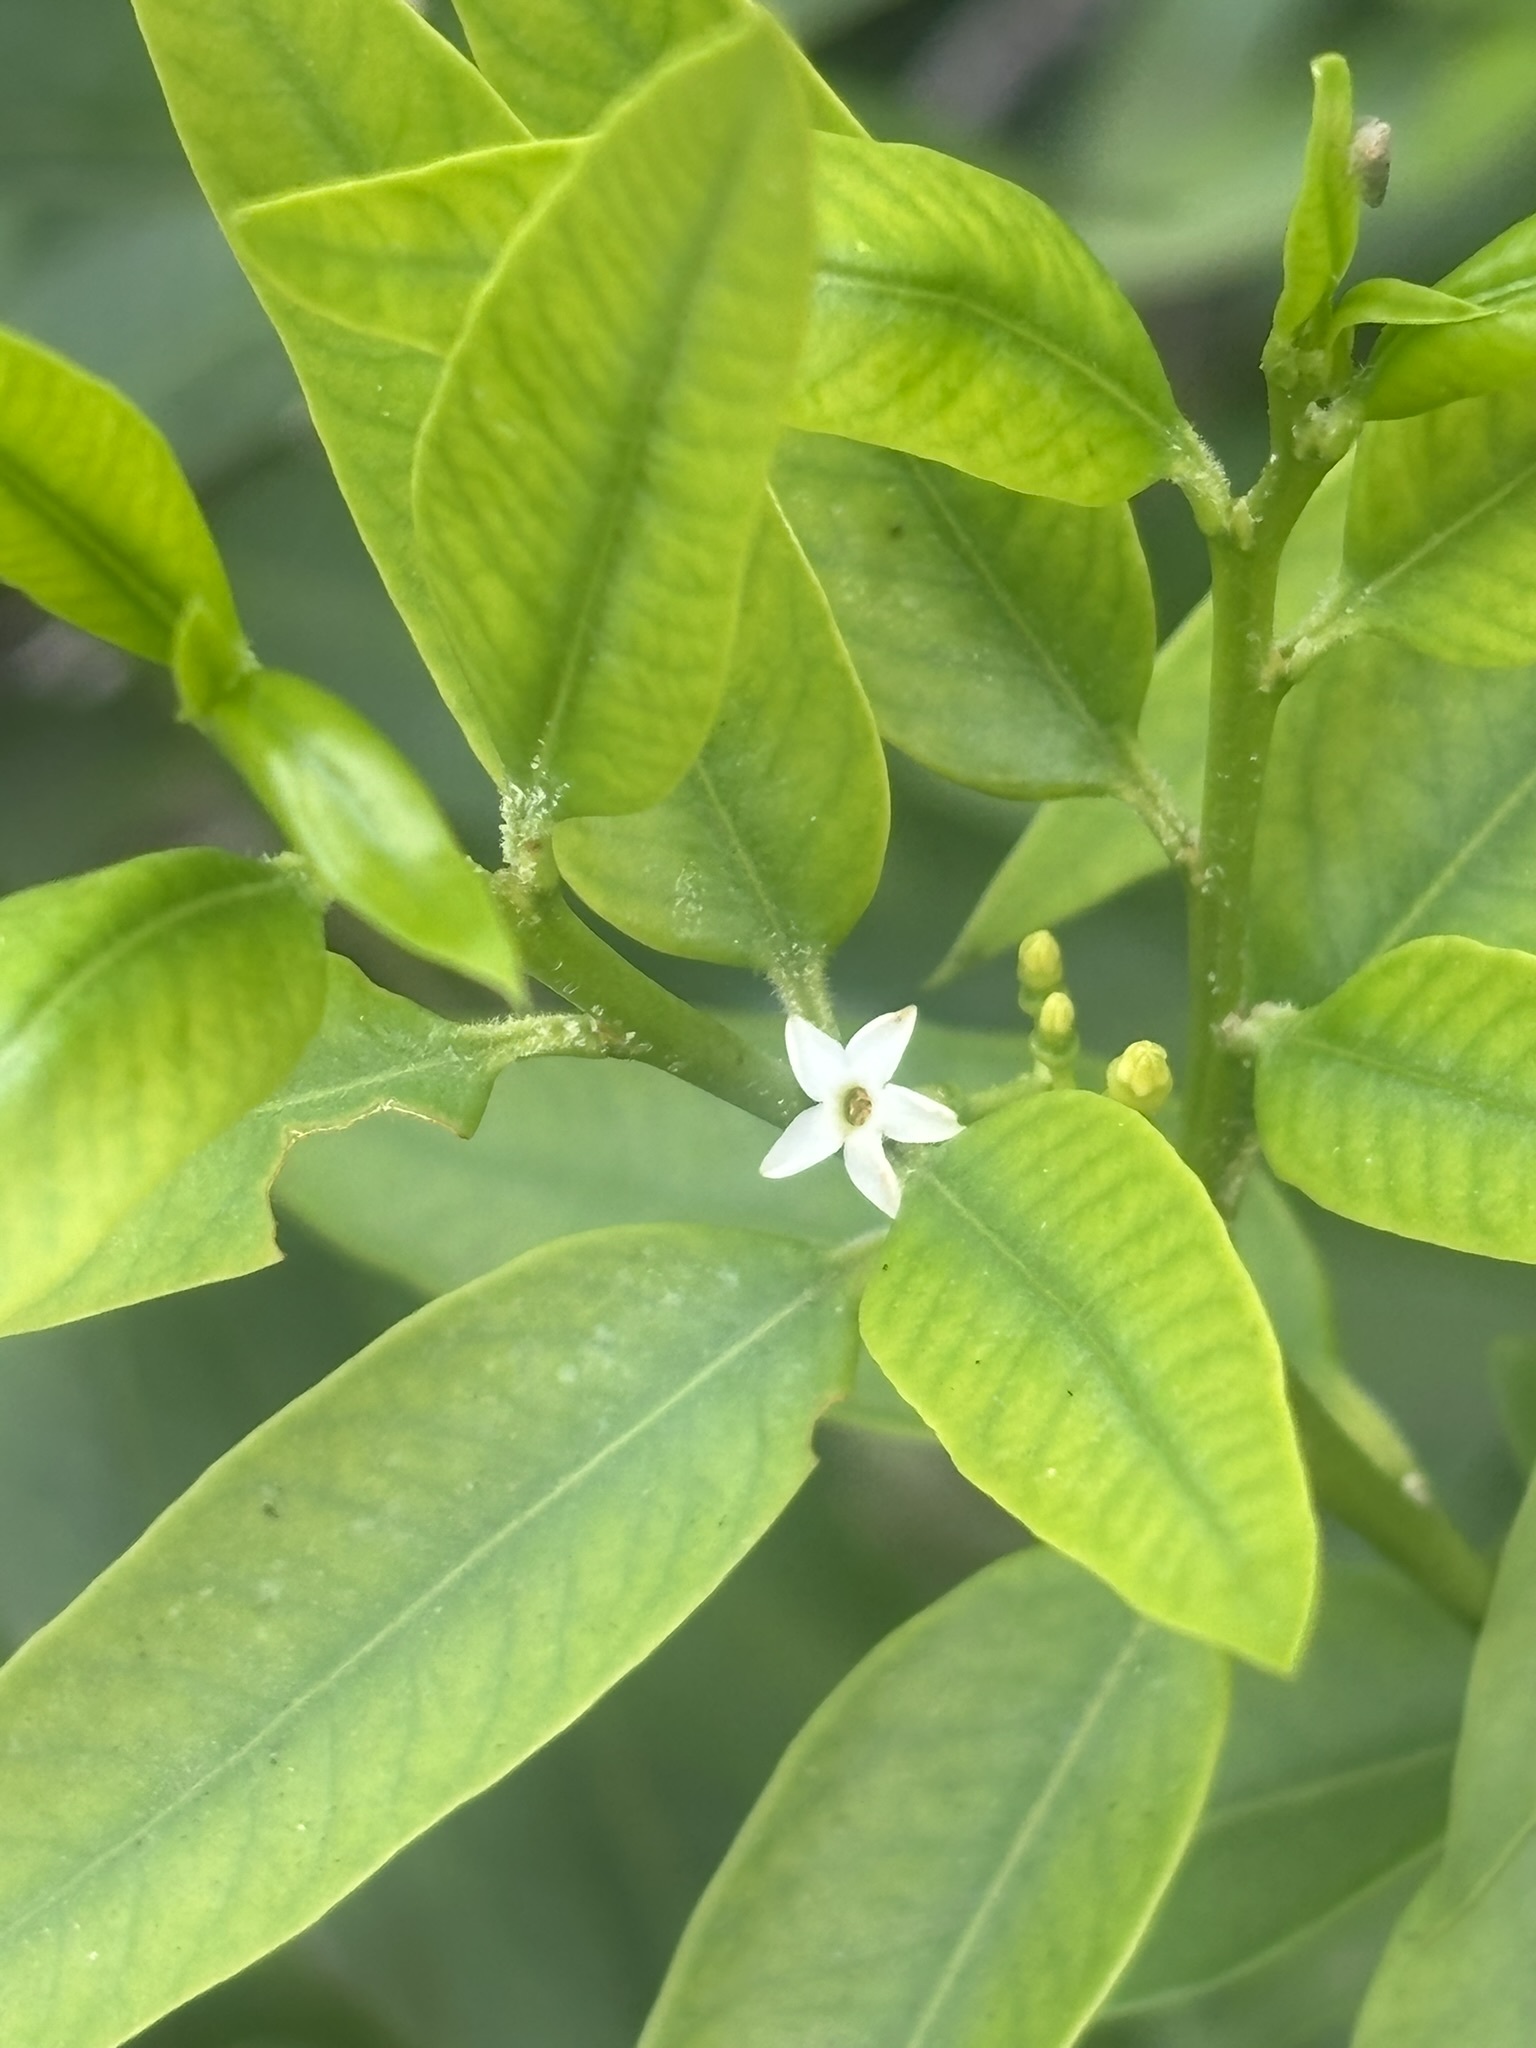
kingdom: Plantae
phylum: Tracheophyta
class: Magnoliopsida
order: Gentianales
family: Apocynaceae
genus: Vallesia
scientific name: Vallesia glabra
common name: Pearlberry
